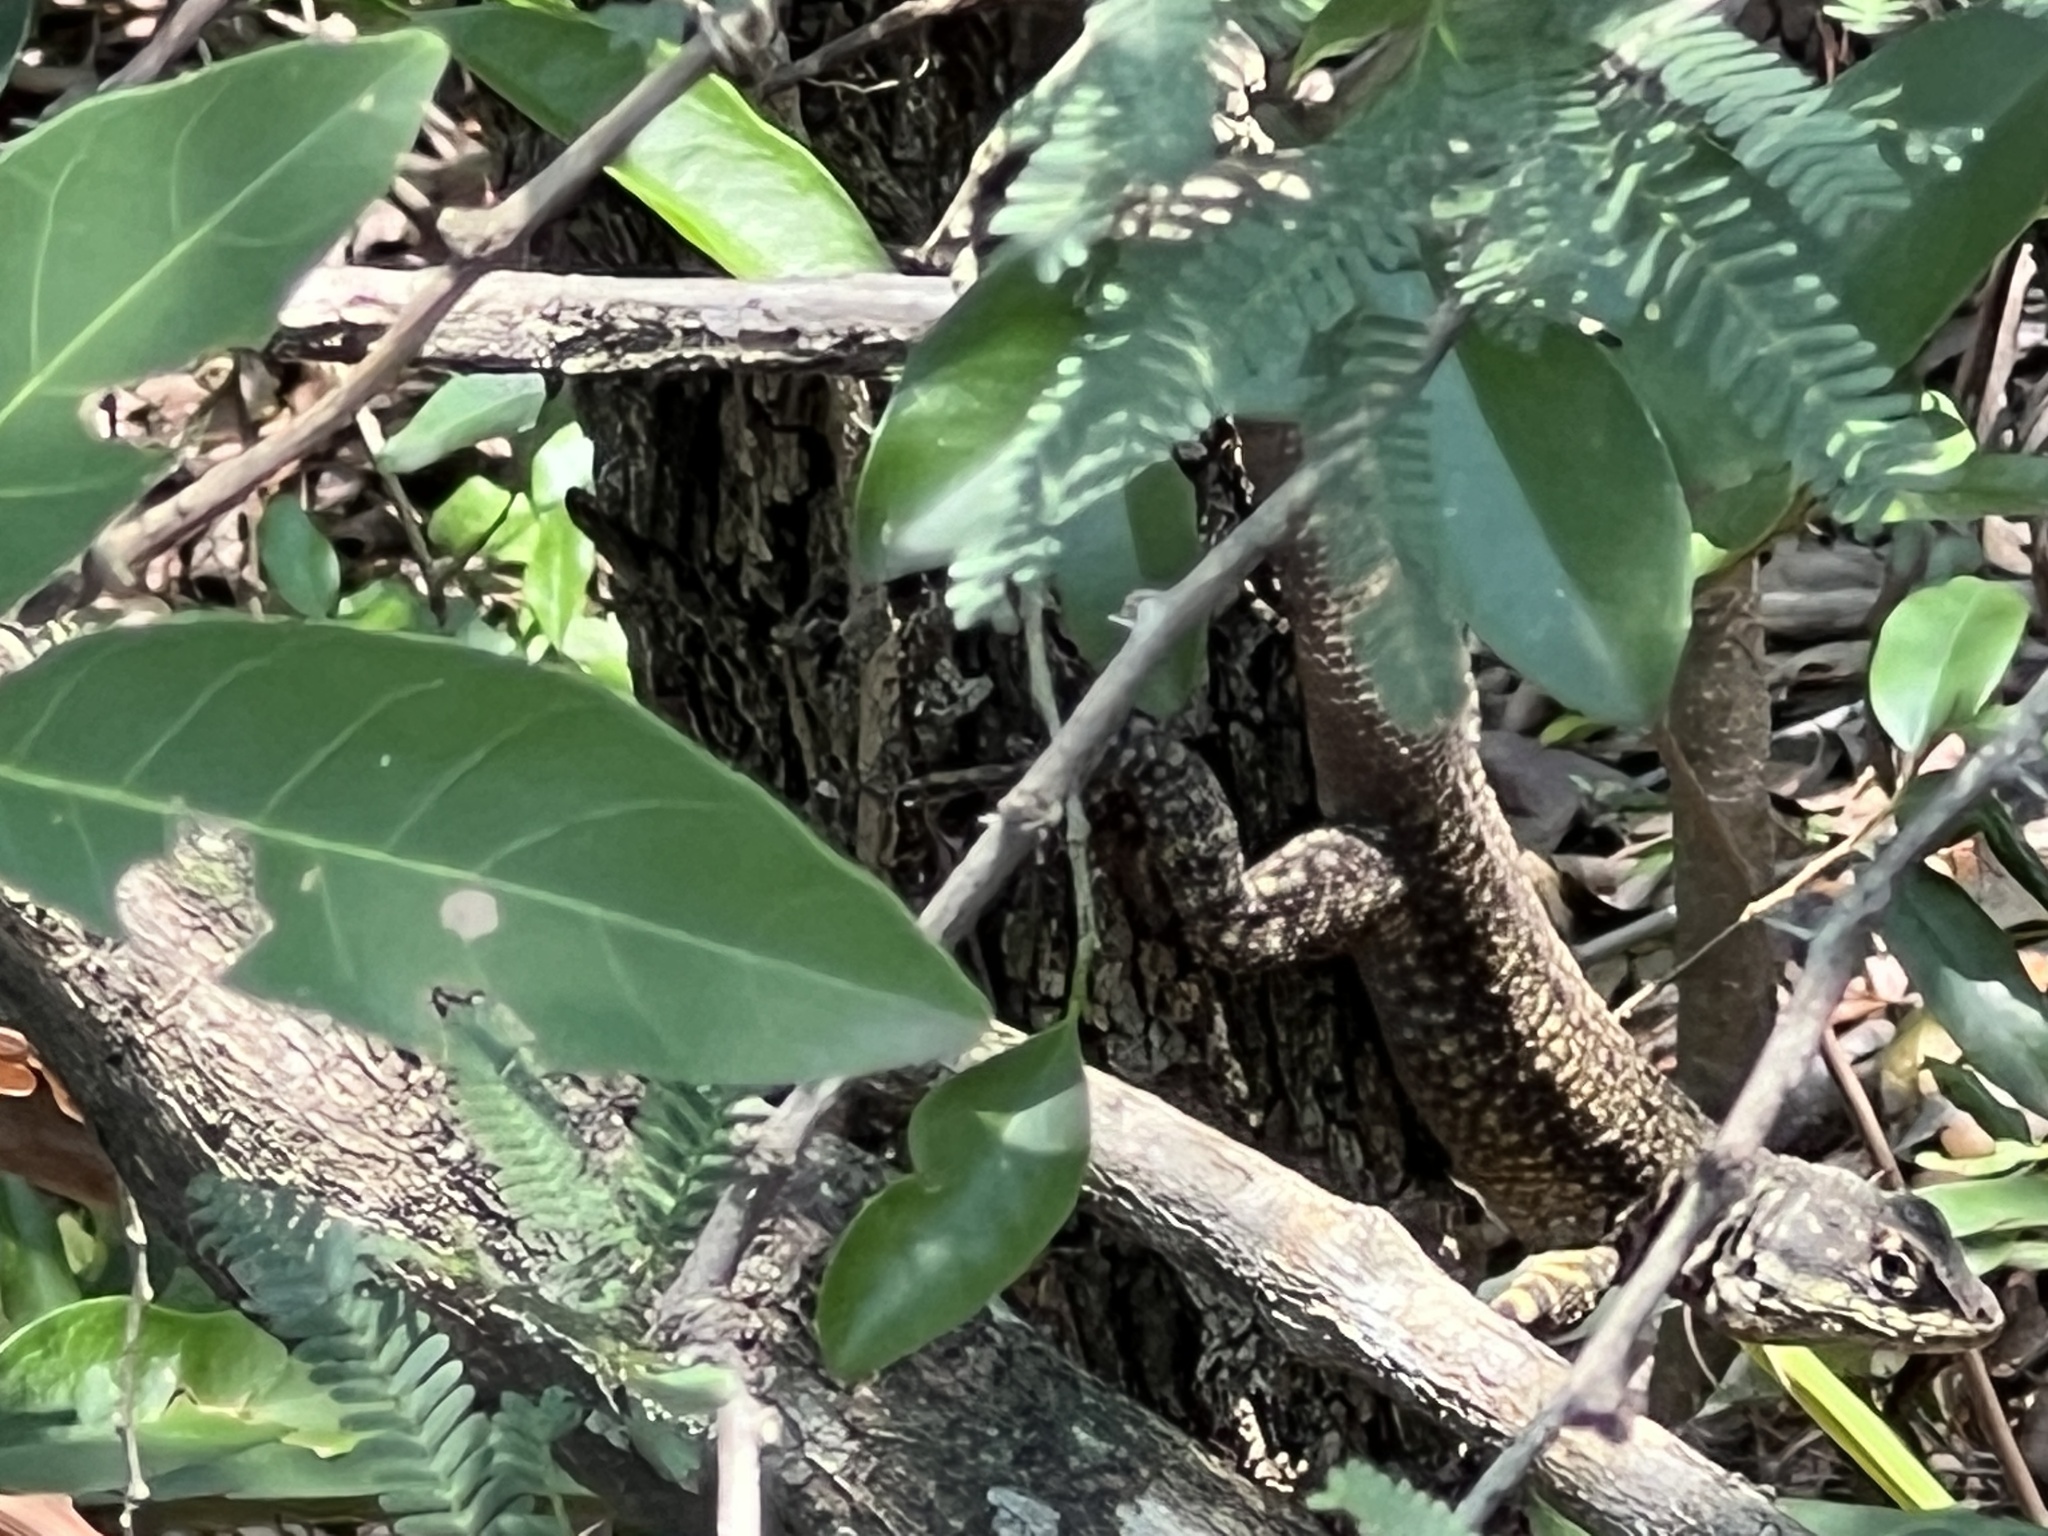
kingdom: Animalia
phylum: Chordata
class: Squamata
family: Tropiduridae
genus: Tropidurus
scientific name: Tropidurus catalanensis
